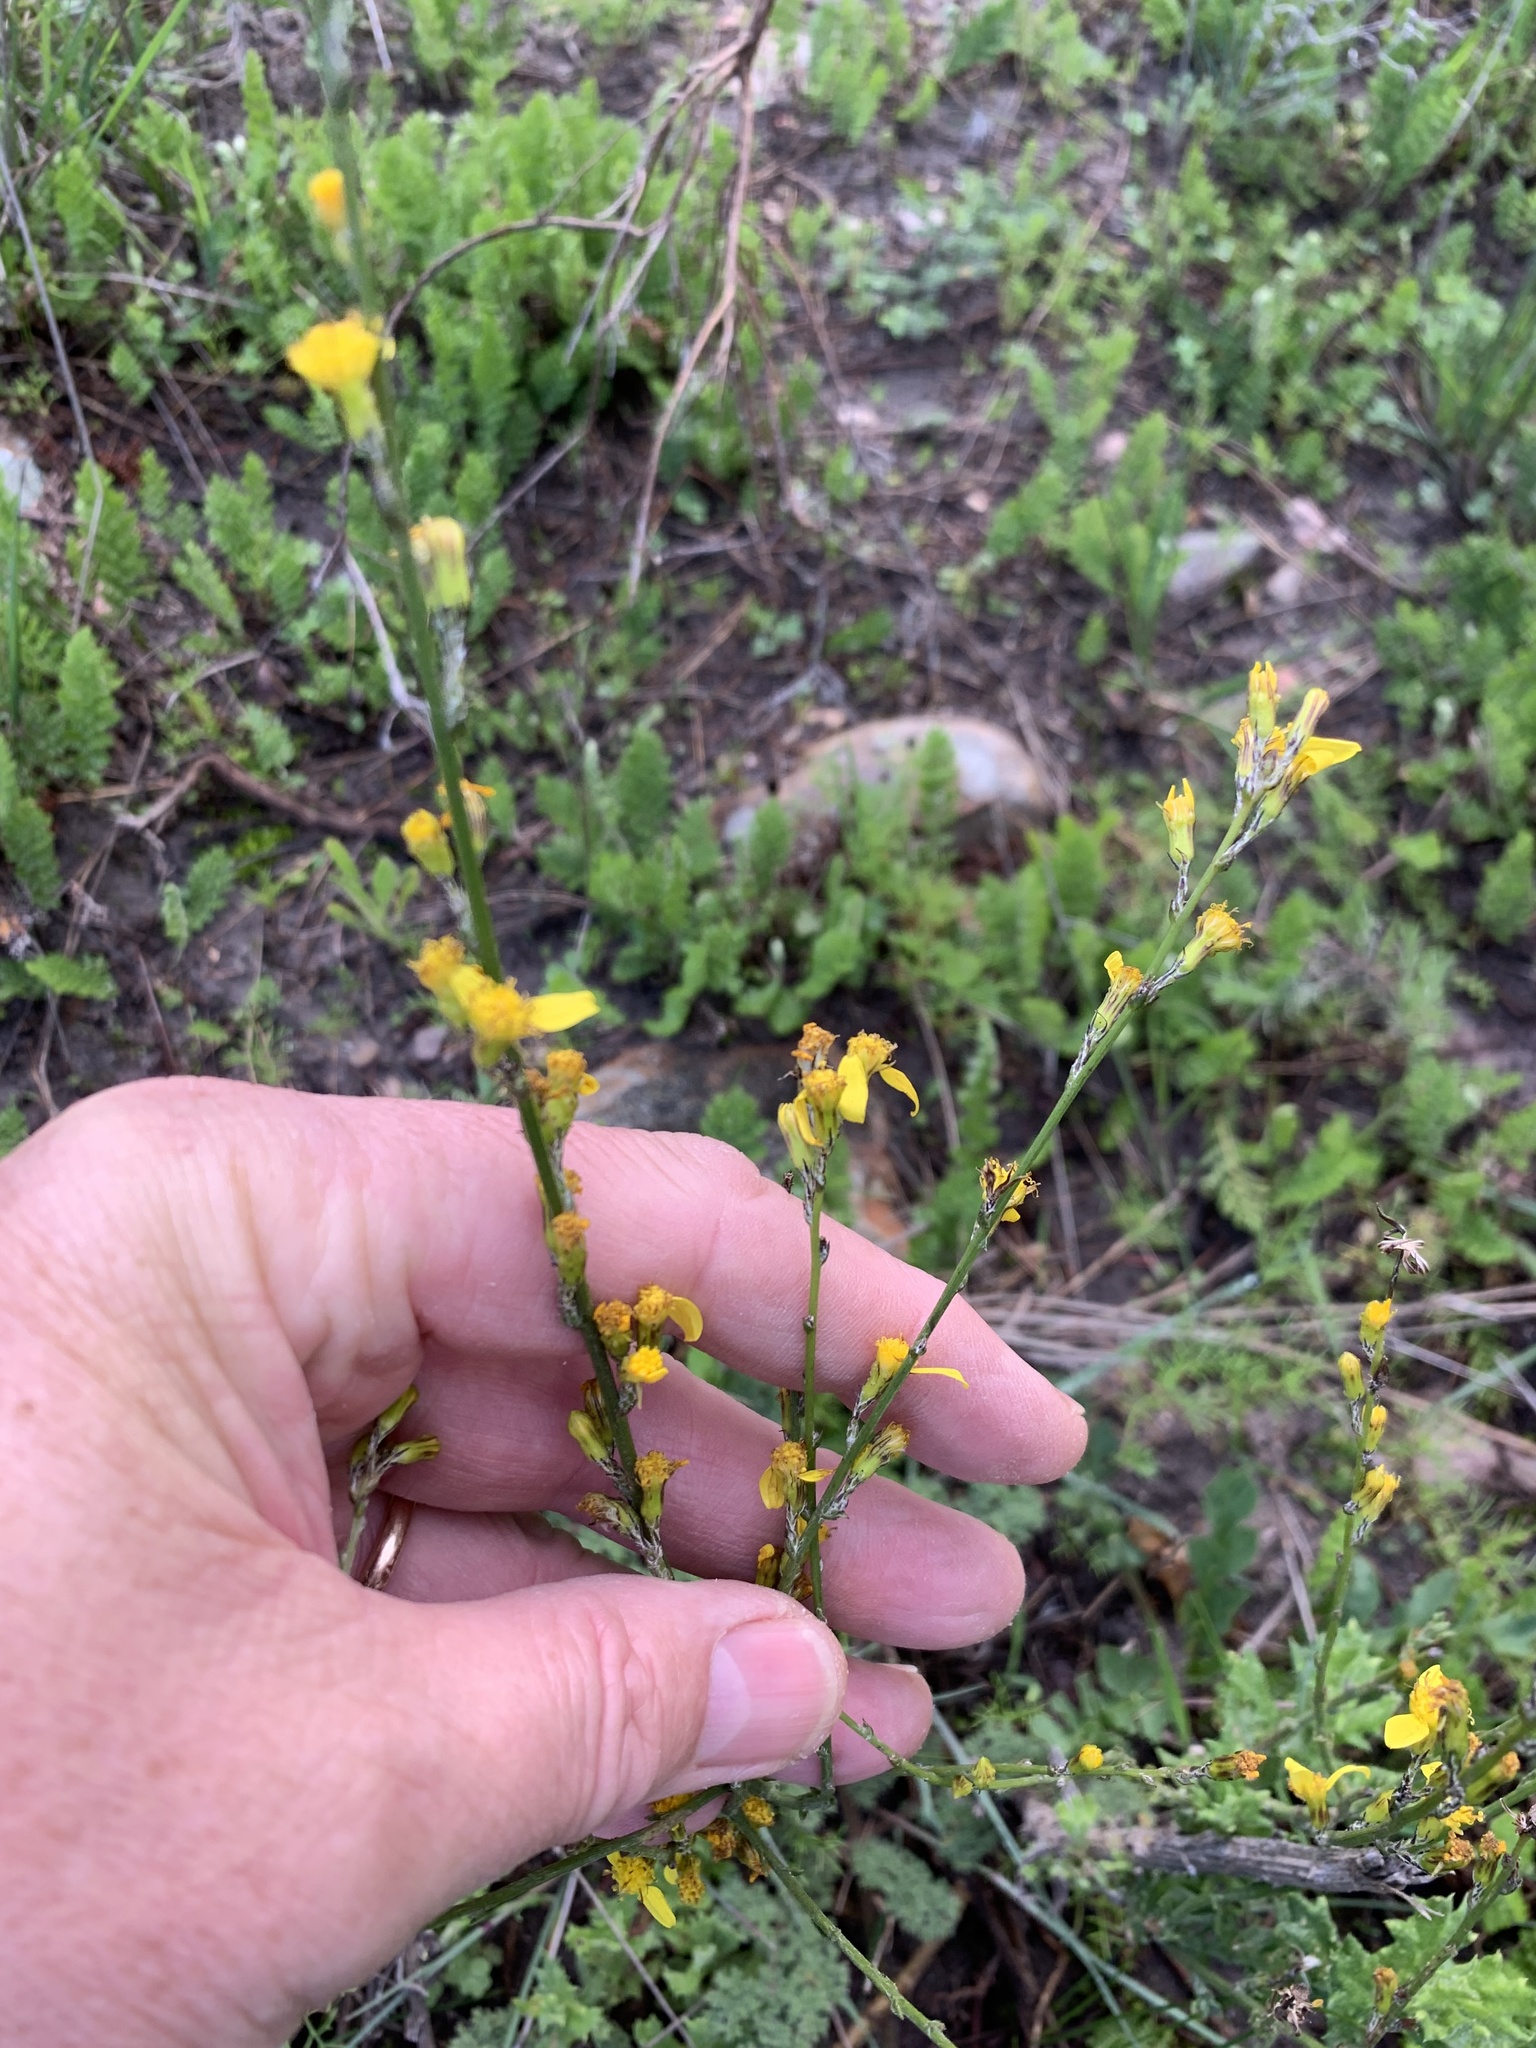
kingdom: Plantae
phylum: Tracheophyta
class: Magnoliopsida
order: Asterales
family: Asteraceae
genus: Senecio
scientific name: Senecio pubigerus
